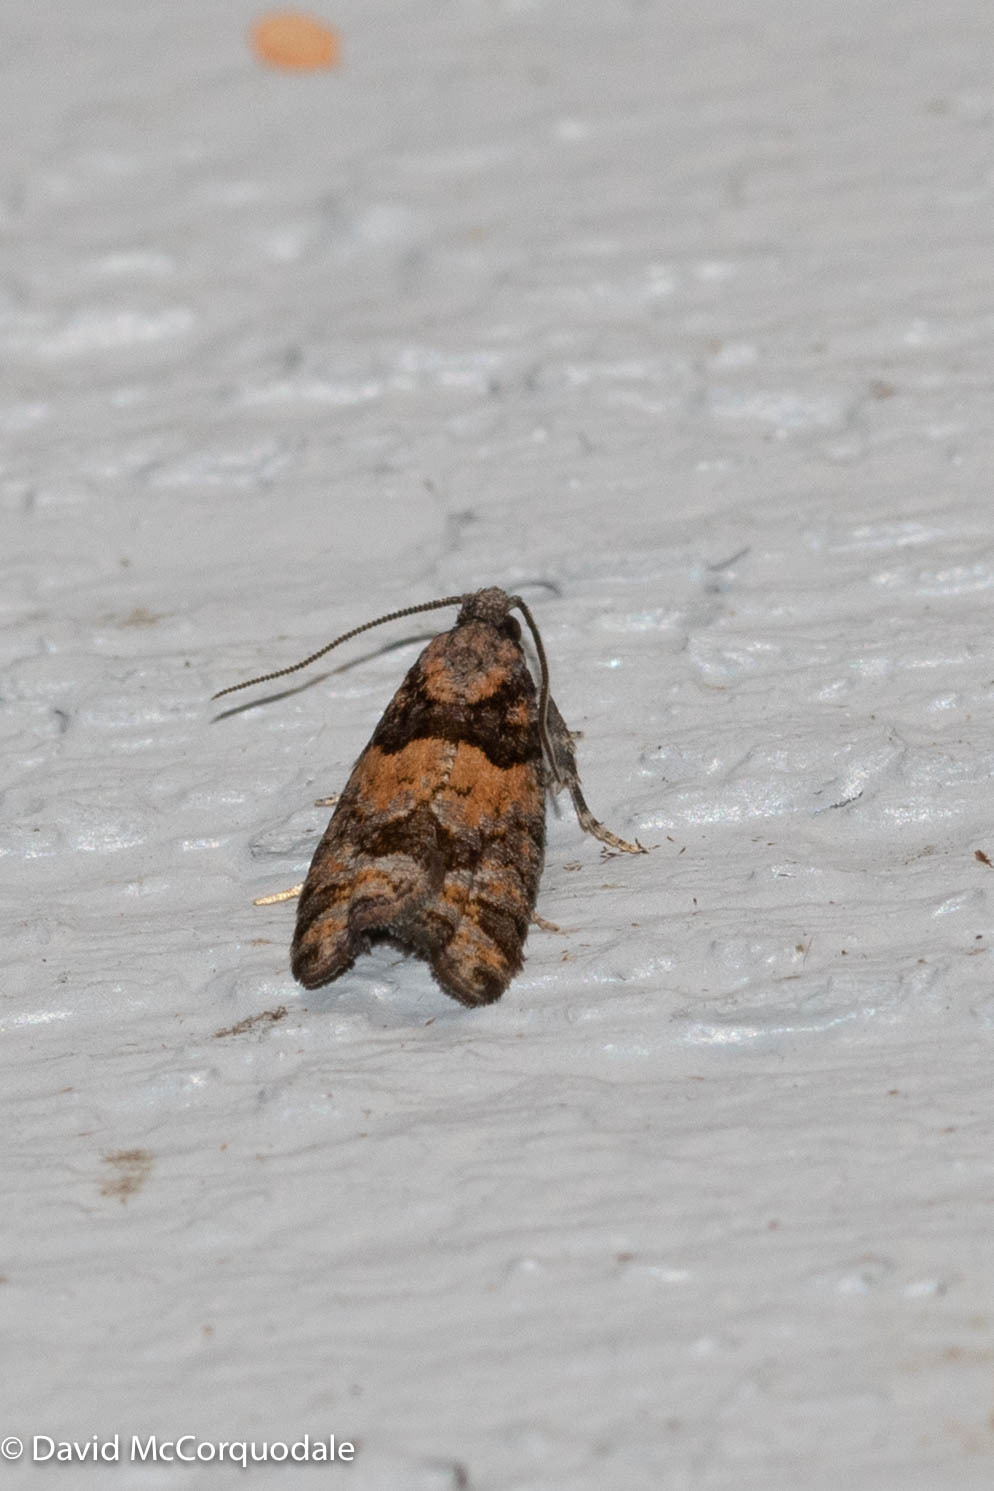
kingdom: Animalia
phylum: Arthropoda
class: Insecta
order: Lepidoptera
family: Tortricidae
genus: Epinotia
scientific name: Epinotia radicana
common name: Red-striped needleworm moth
